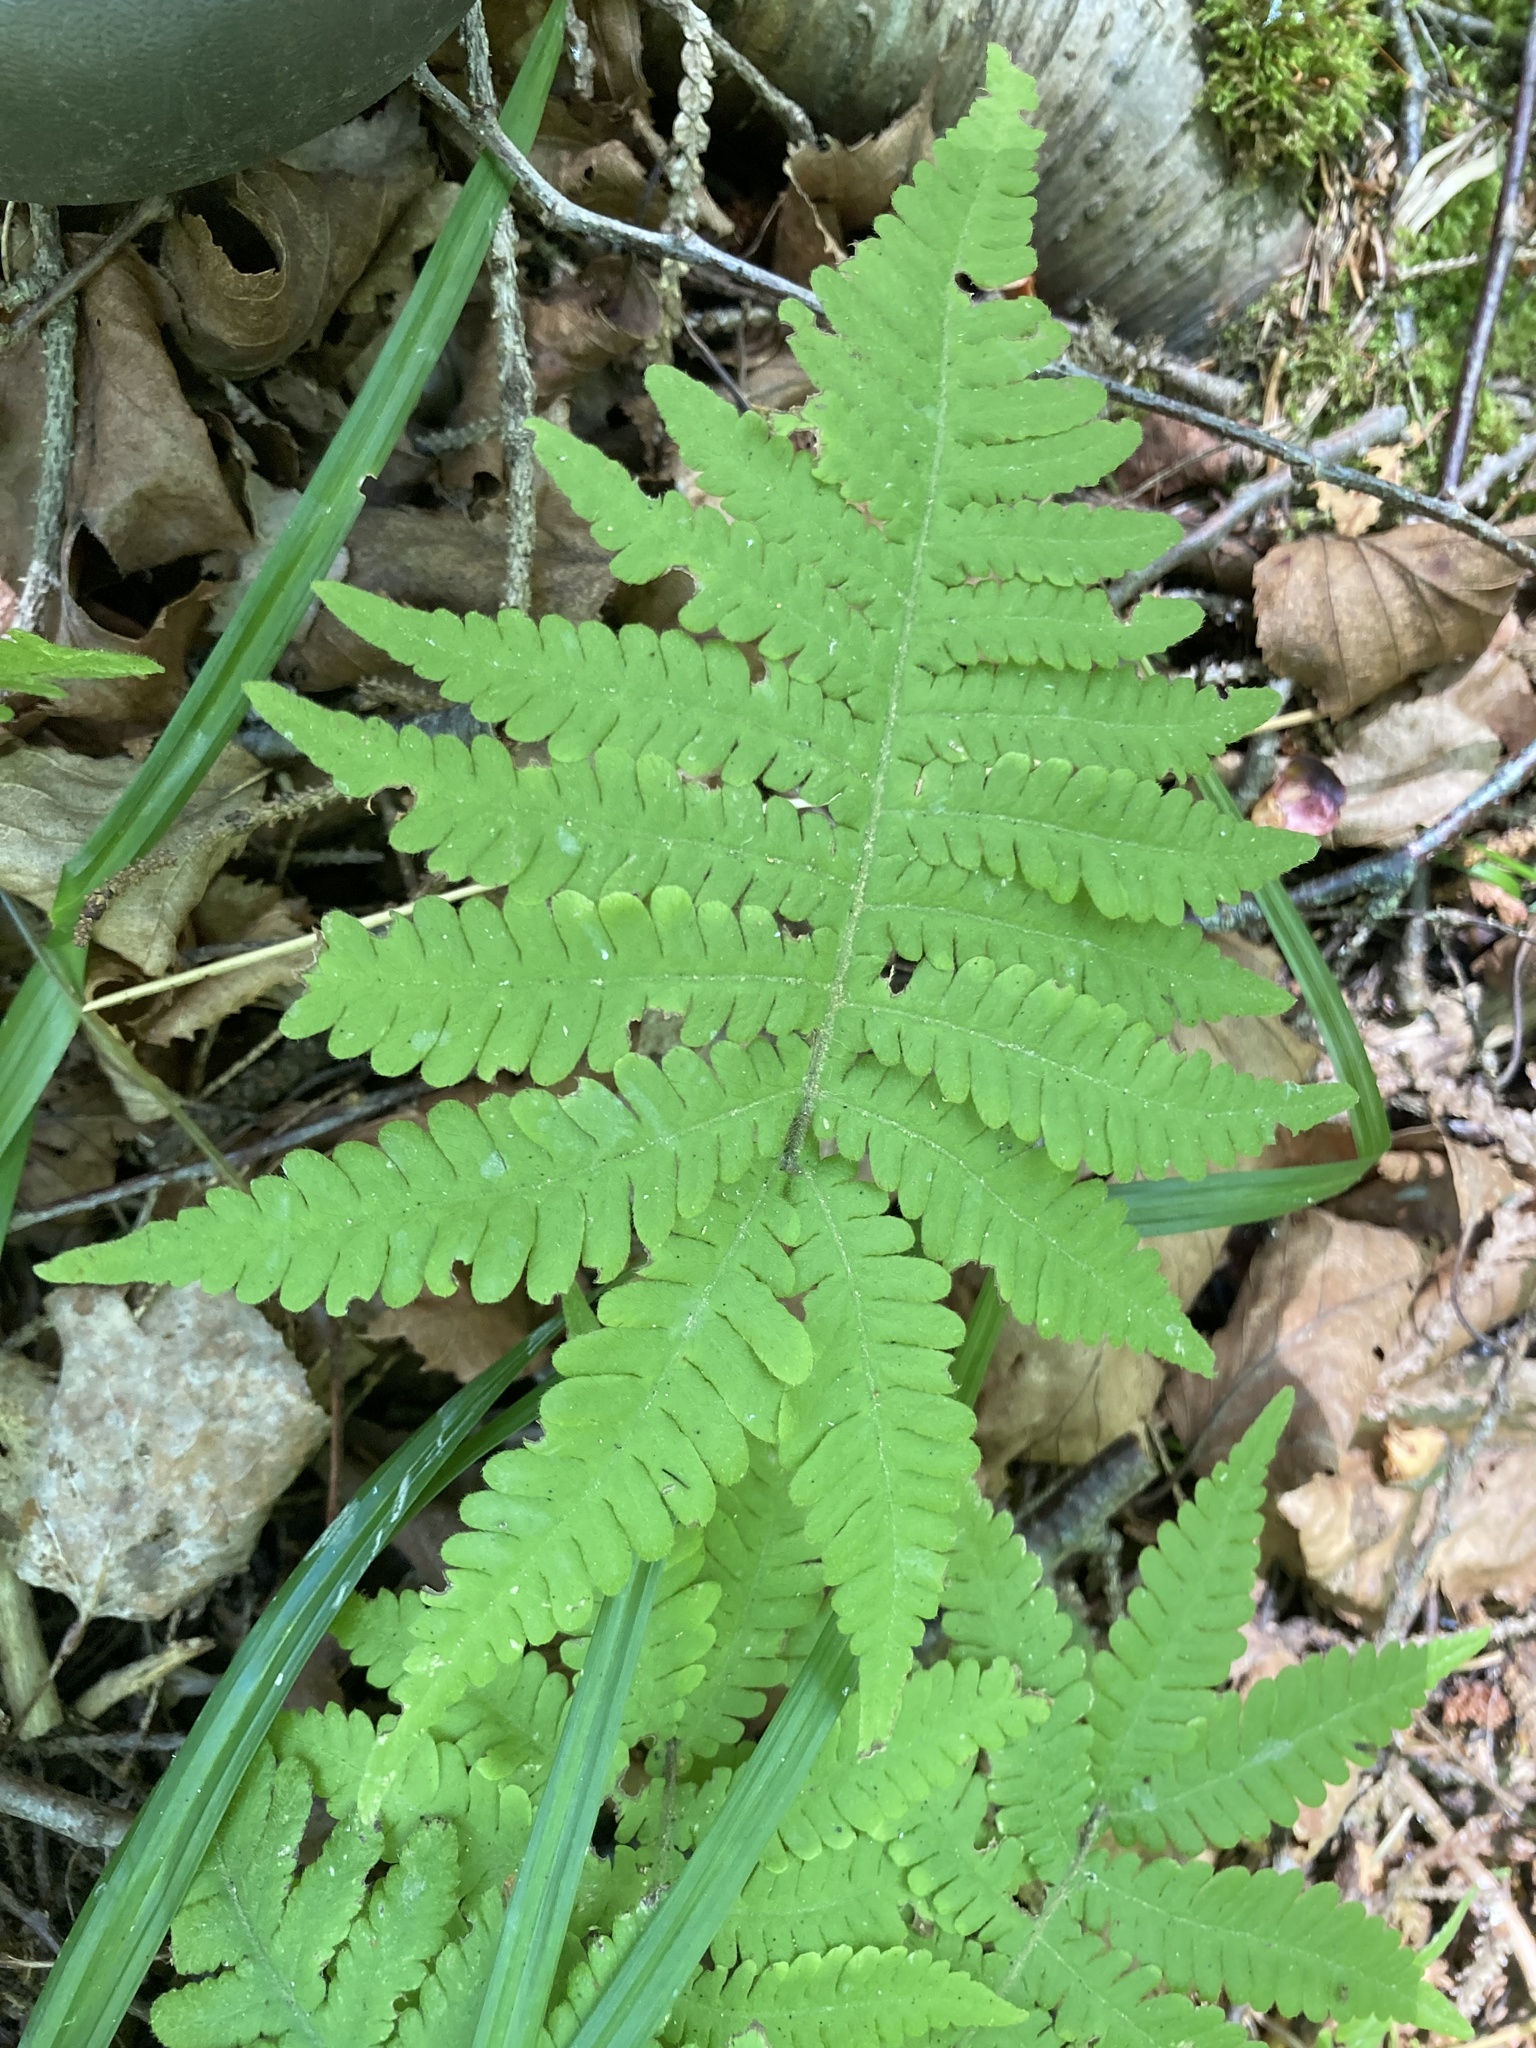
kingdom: Plantae
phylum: Tracheophyta
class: Polypodiopsida
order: Polypodiales
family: Thelypteridaceae
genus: Phegopteris
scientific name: Phegopteris connectilis
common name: Beech fern
